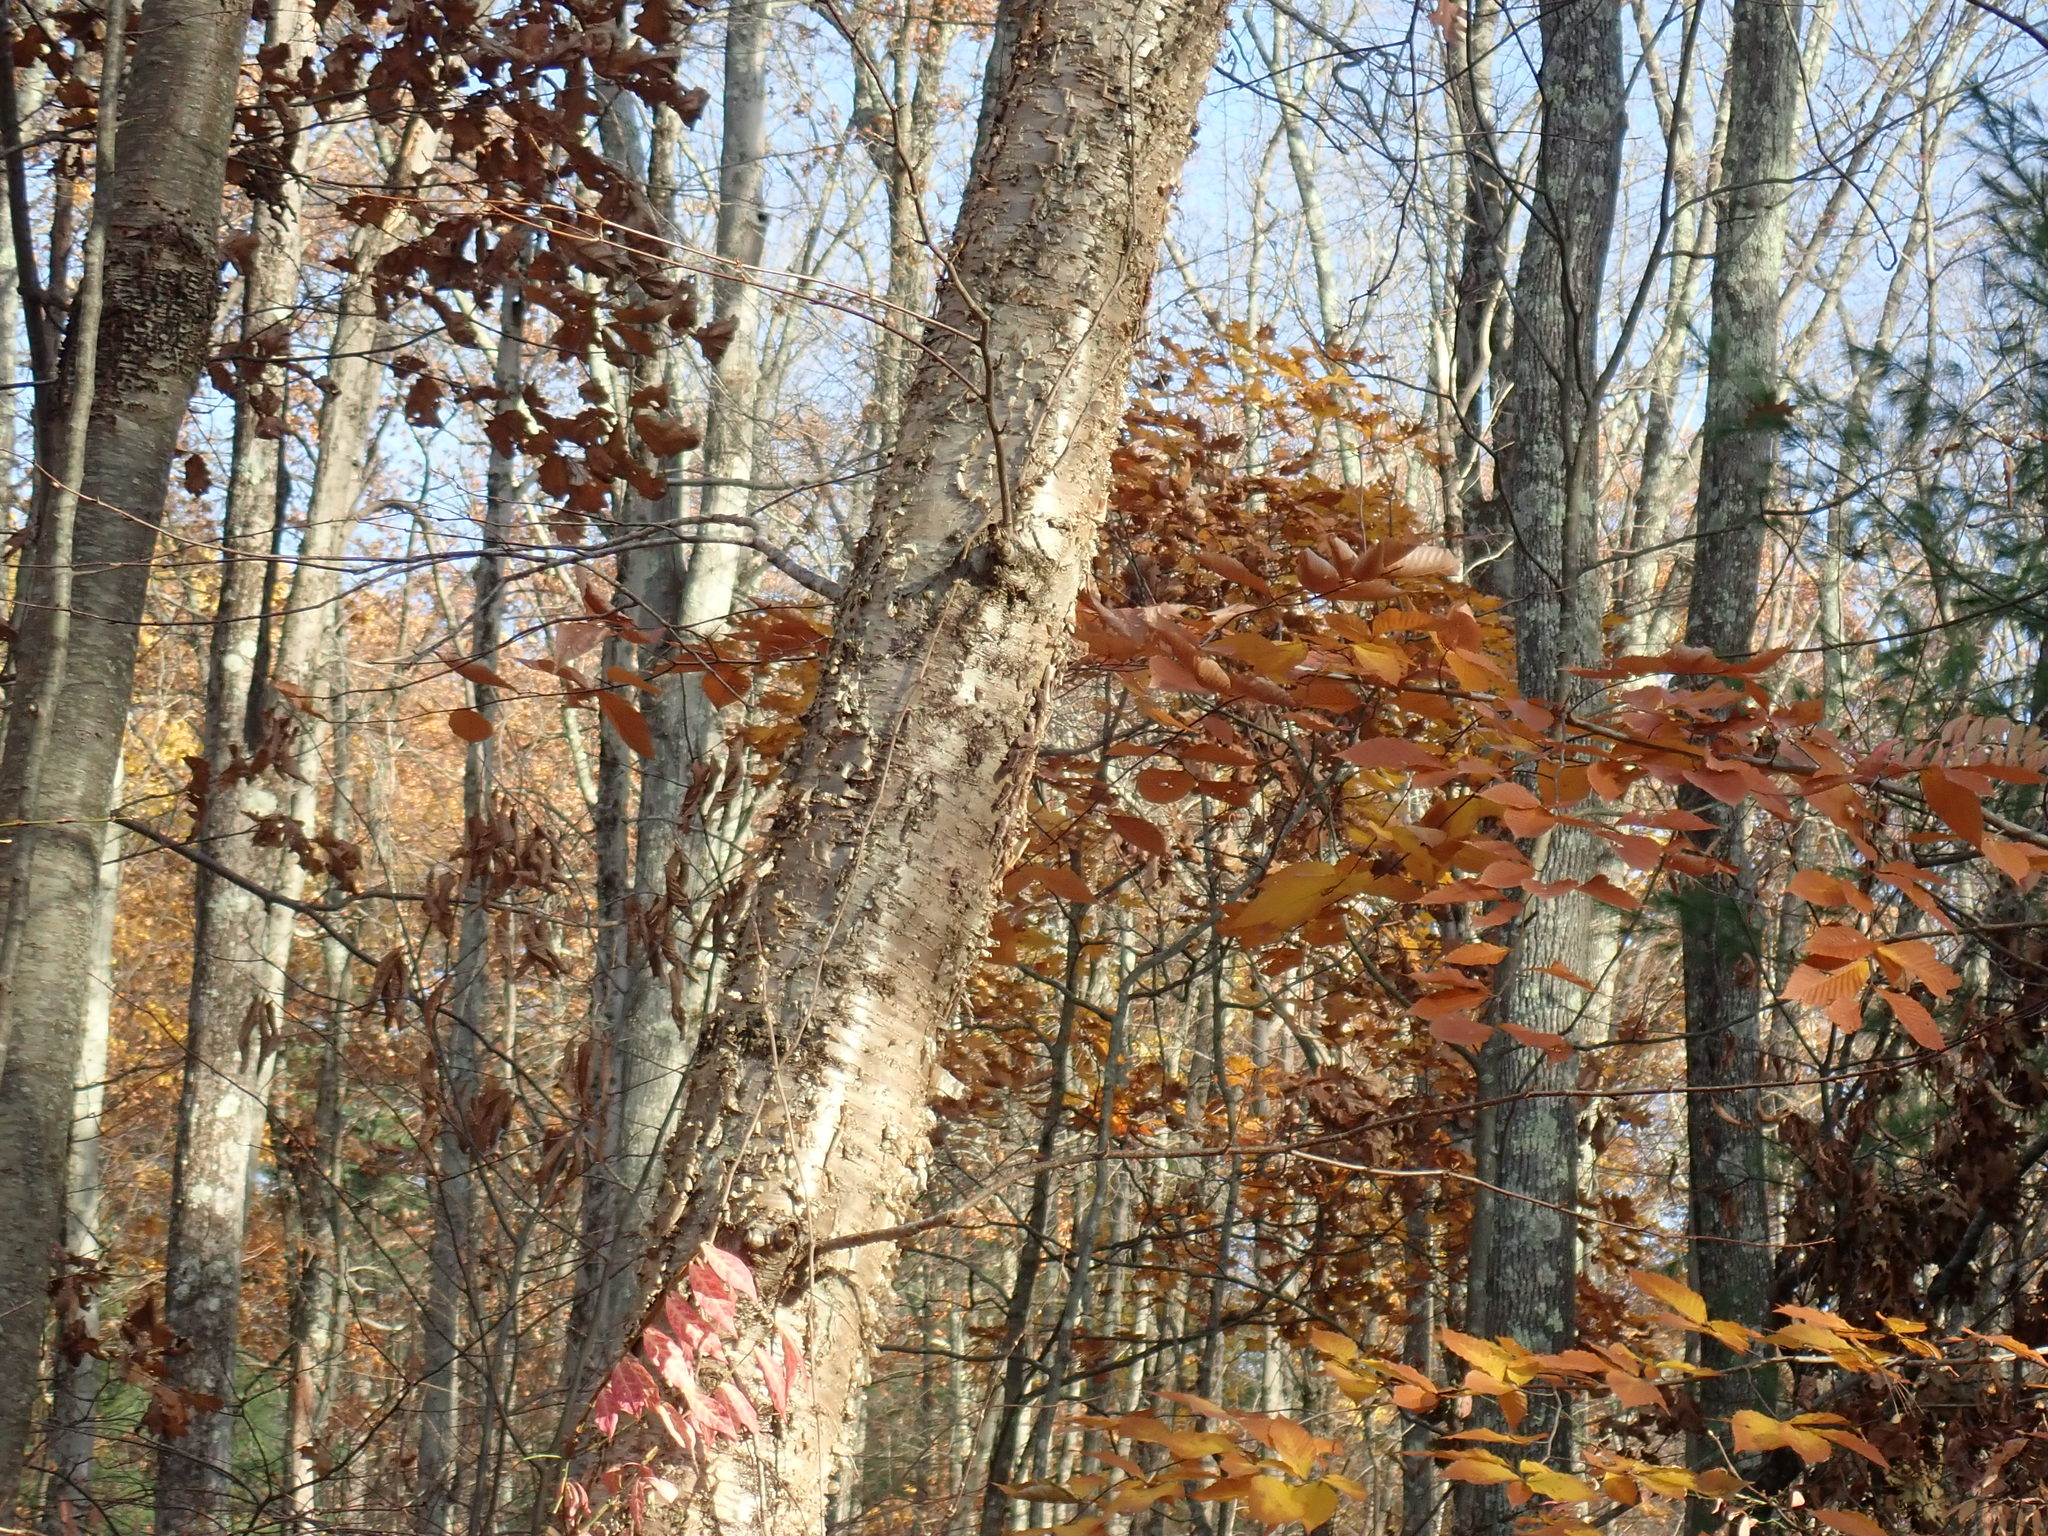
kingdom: Plantae
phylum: Tracheophyta
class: Magnoliopsida
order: Fagales
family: Betulaceae
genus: Betula
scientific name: Betula alleghaniensis
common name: Yellow birch
